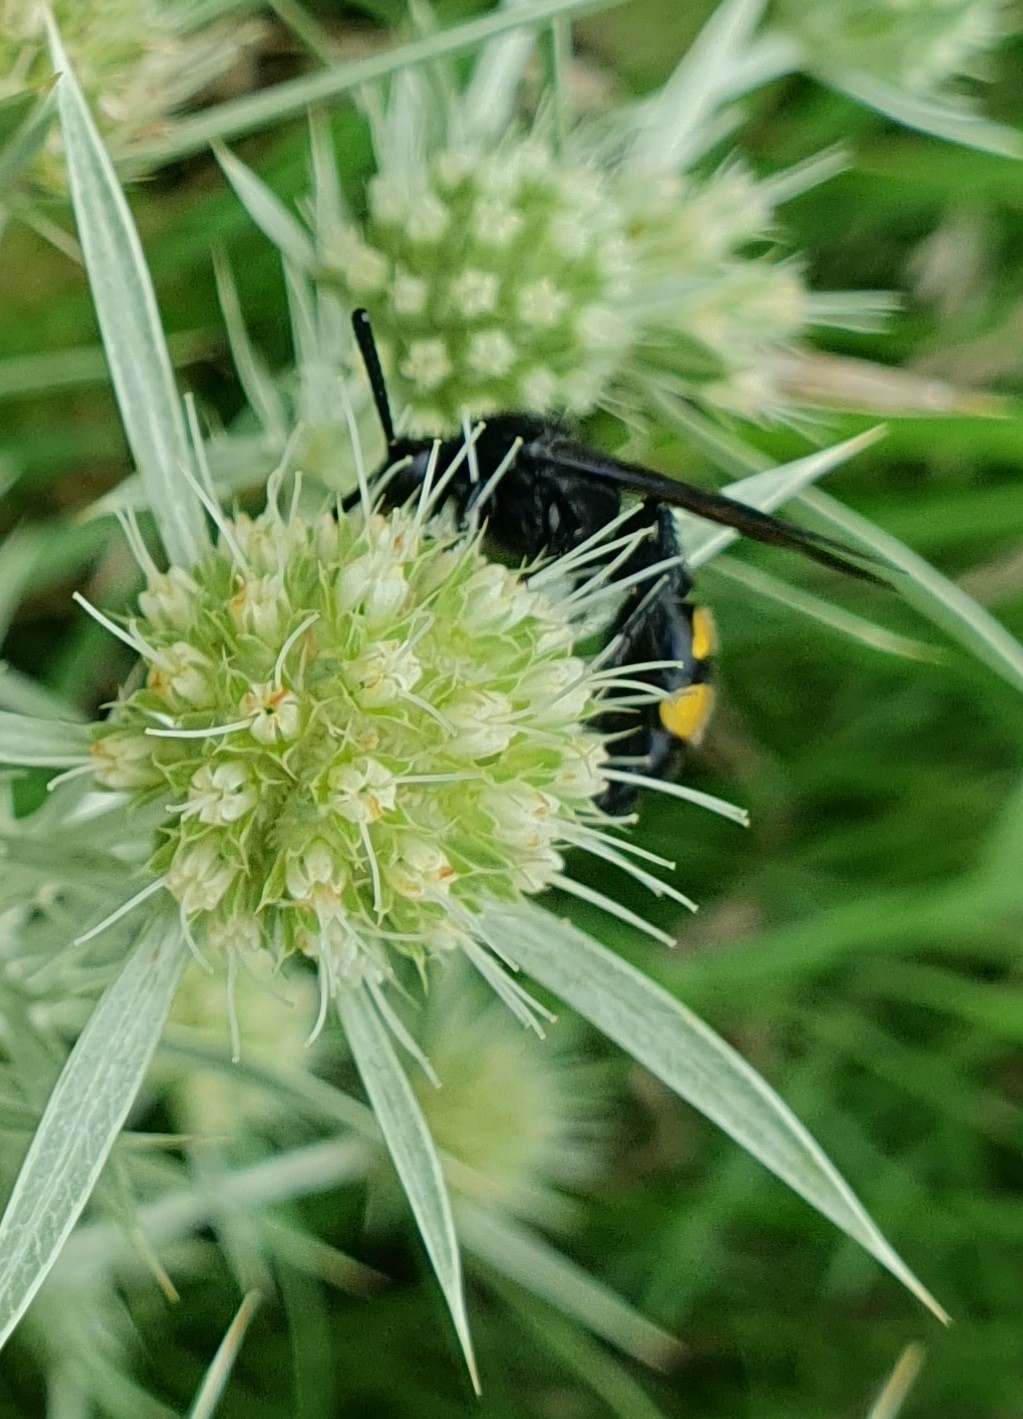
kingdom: Animalia
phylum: Arthropoda
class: Insecta
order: Hymenoptera
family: Scoliidae
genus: Scolia
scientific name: Scolia hirta
